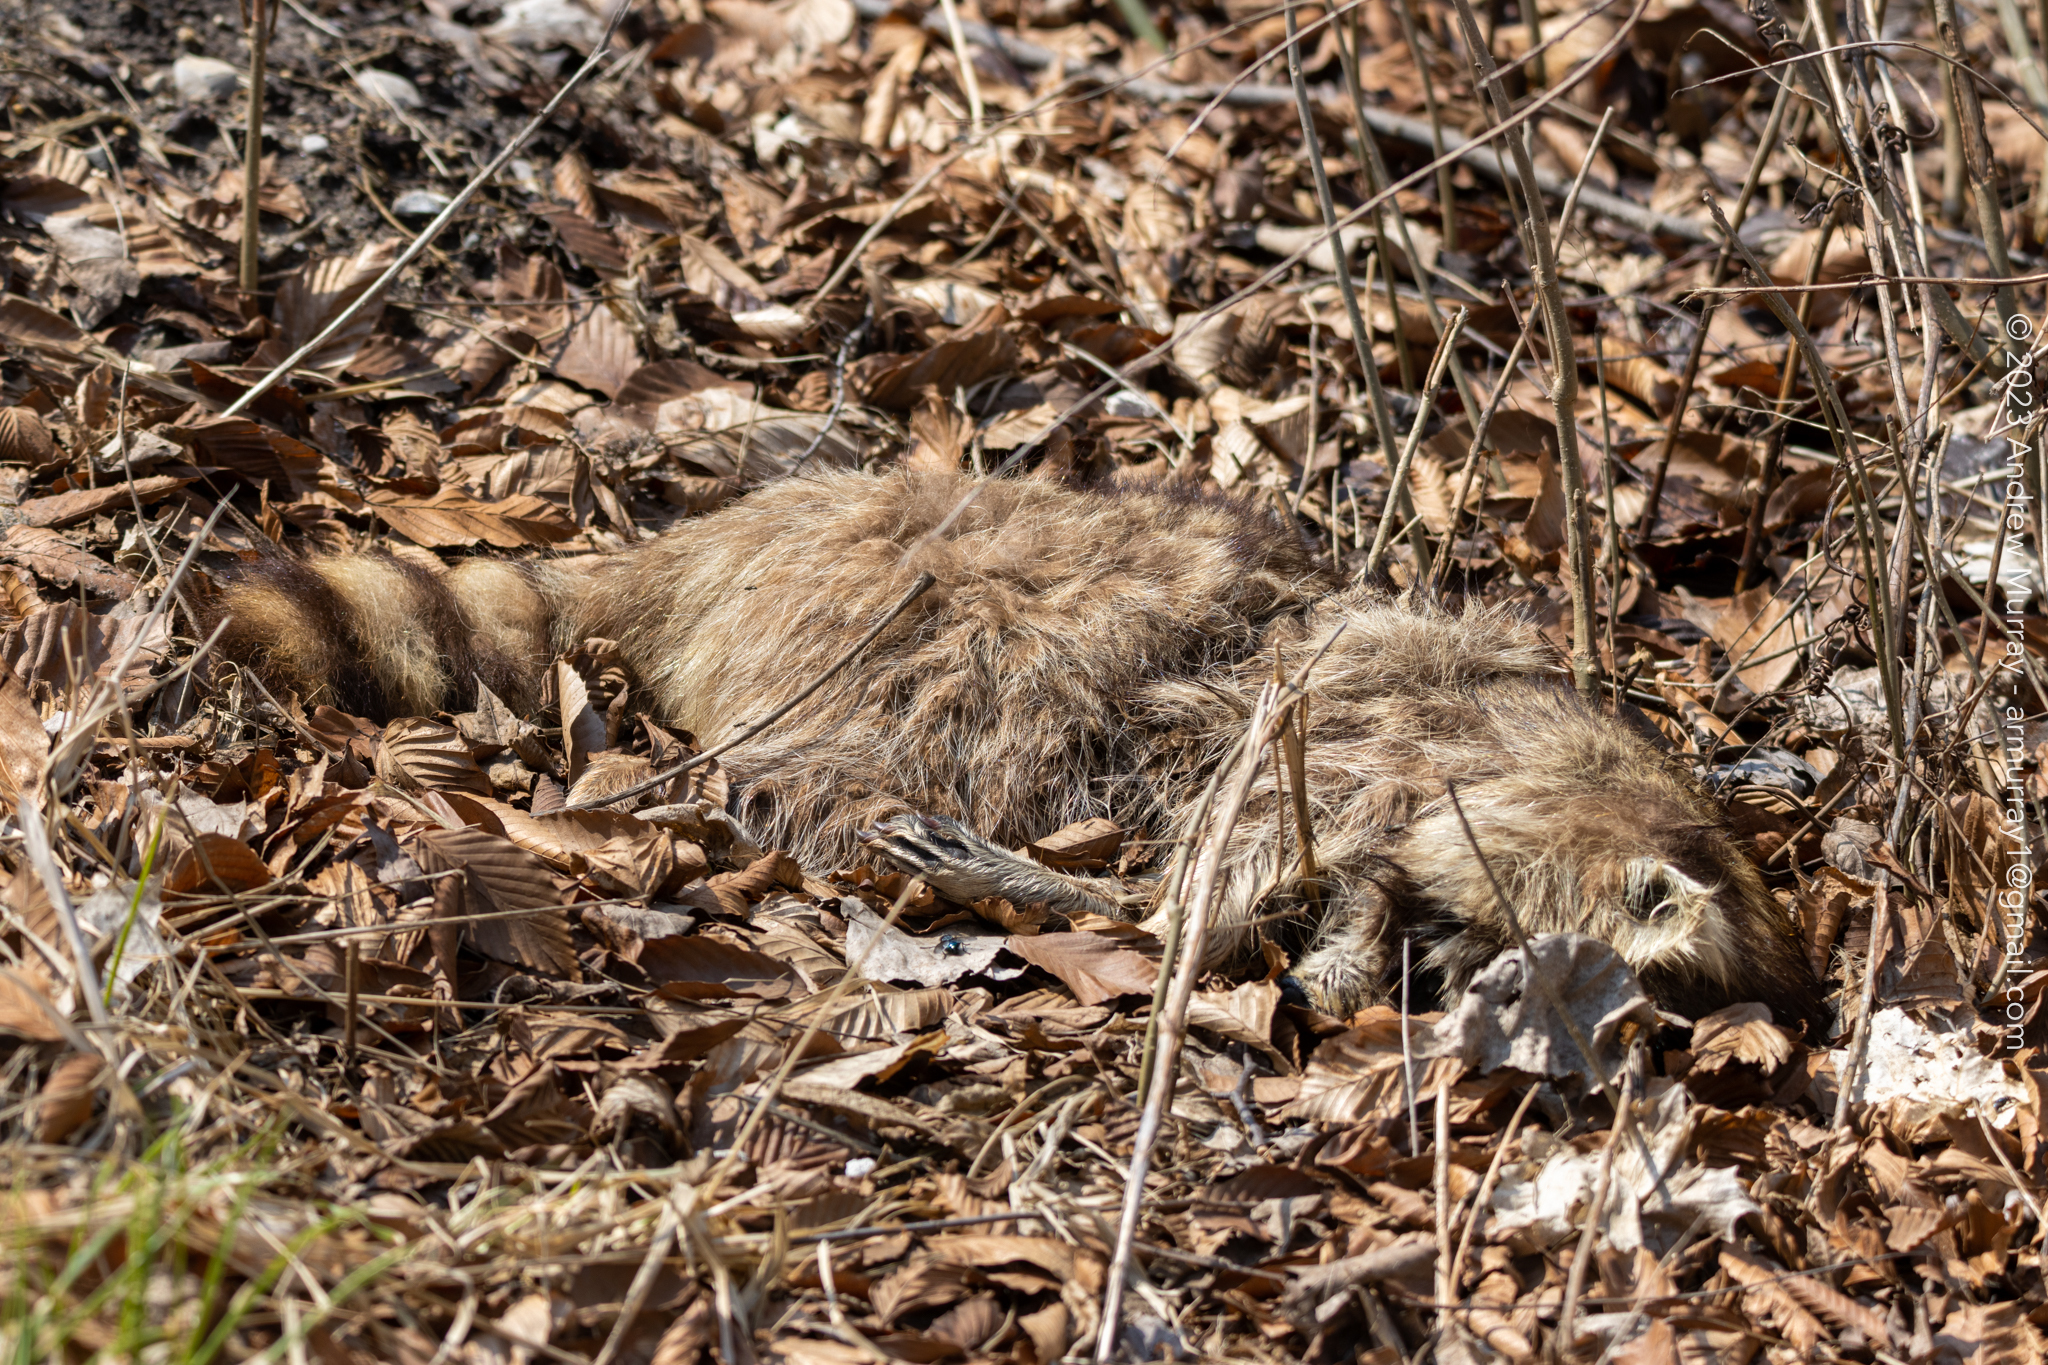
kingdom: Animalia
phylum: Chordata
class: Mammalia
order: Carnivora
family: Procyonidae
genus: Procyon
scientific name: Procyon lotor
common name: Raccoon
